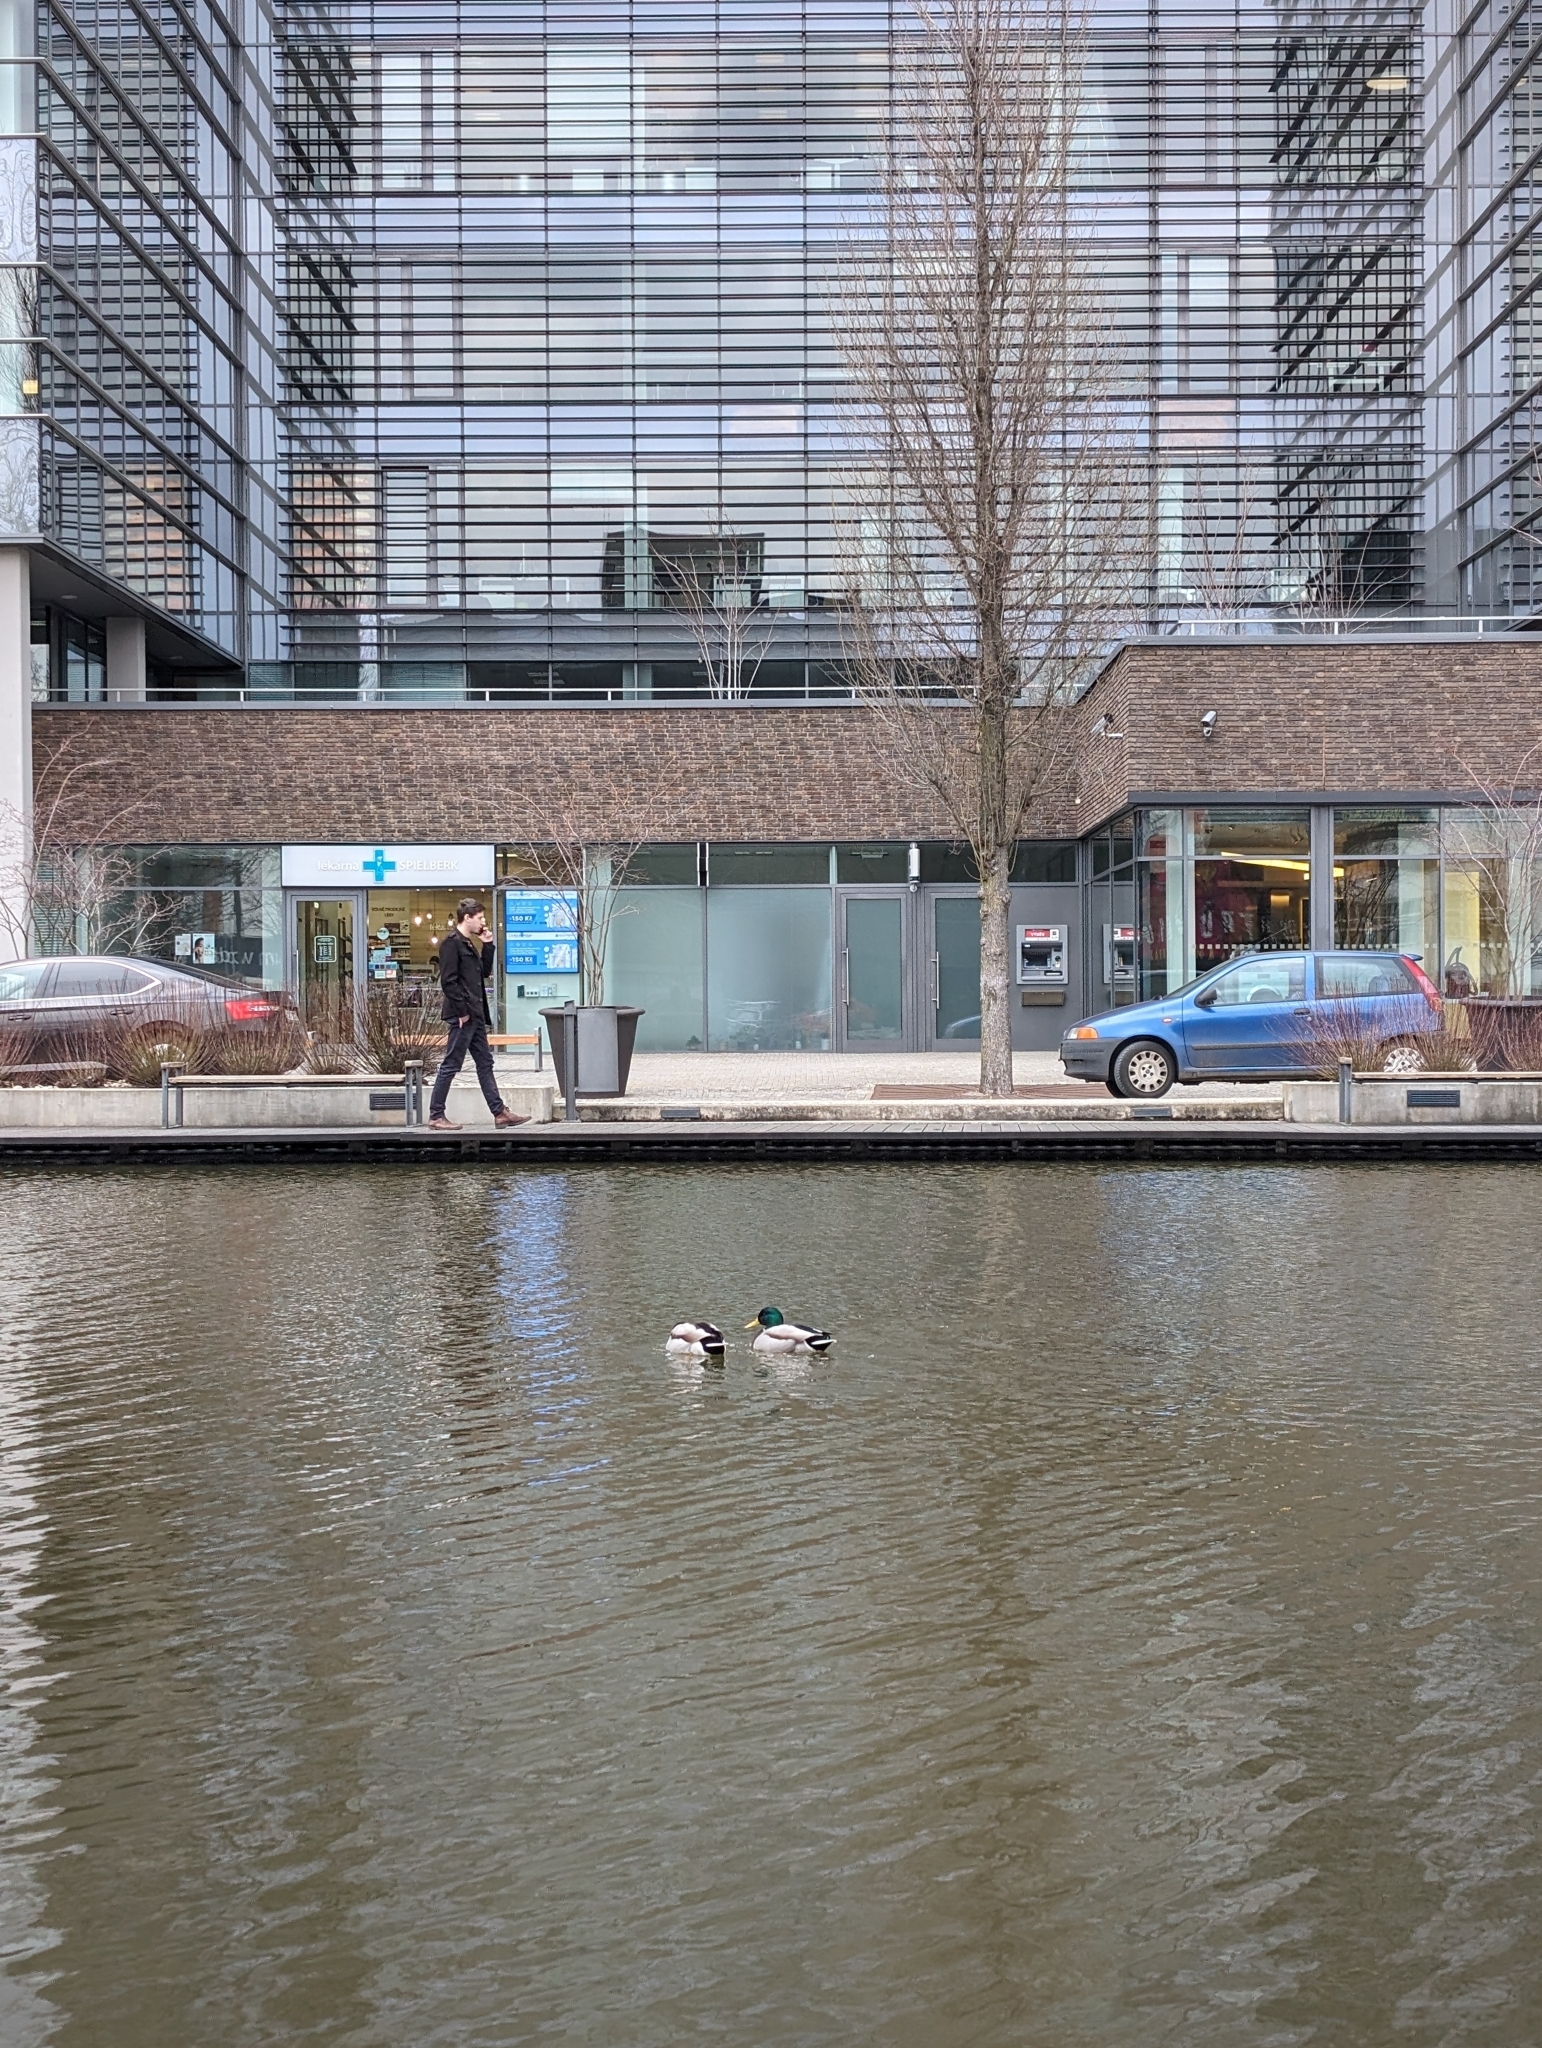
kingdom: Animalia
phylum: Chordata
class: Aves
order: Anseriformes
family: Anatidae
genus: Anas
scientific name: Anas platyrhynchos
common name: Mallard
